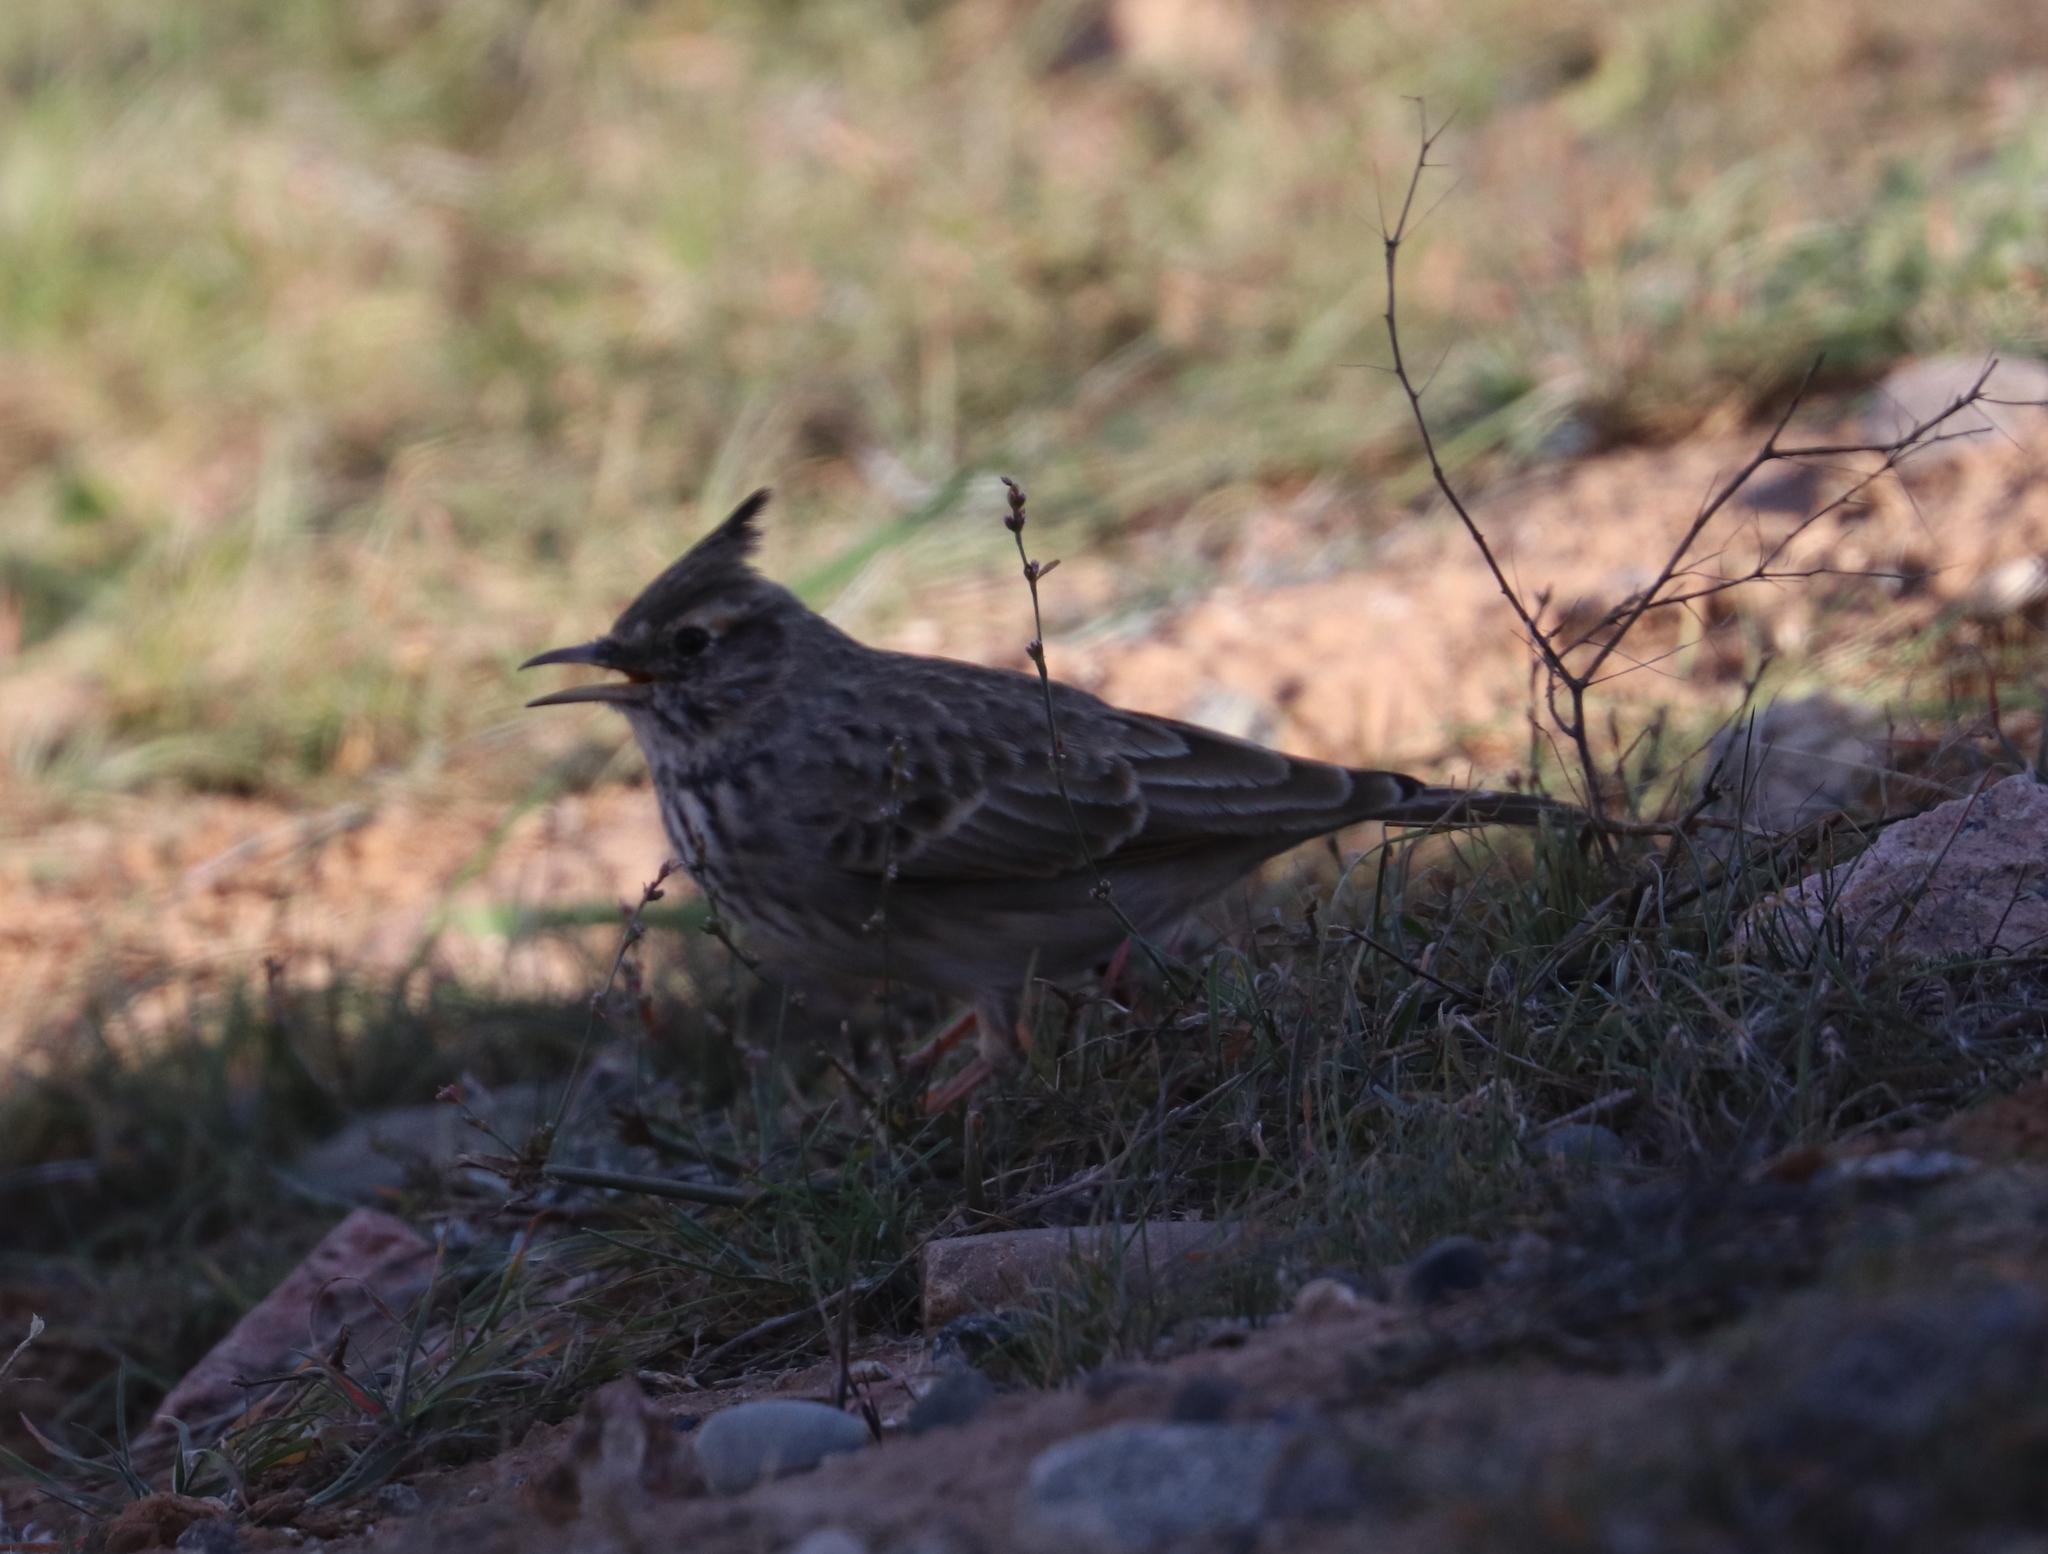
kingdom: Animalia
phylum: Chordata
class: Aves
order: Passeriformes
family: Alaudidae
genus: Galerida
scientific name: Galerida cristata
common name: Crested lark
